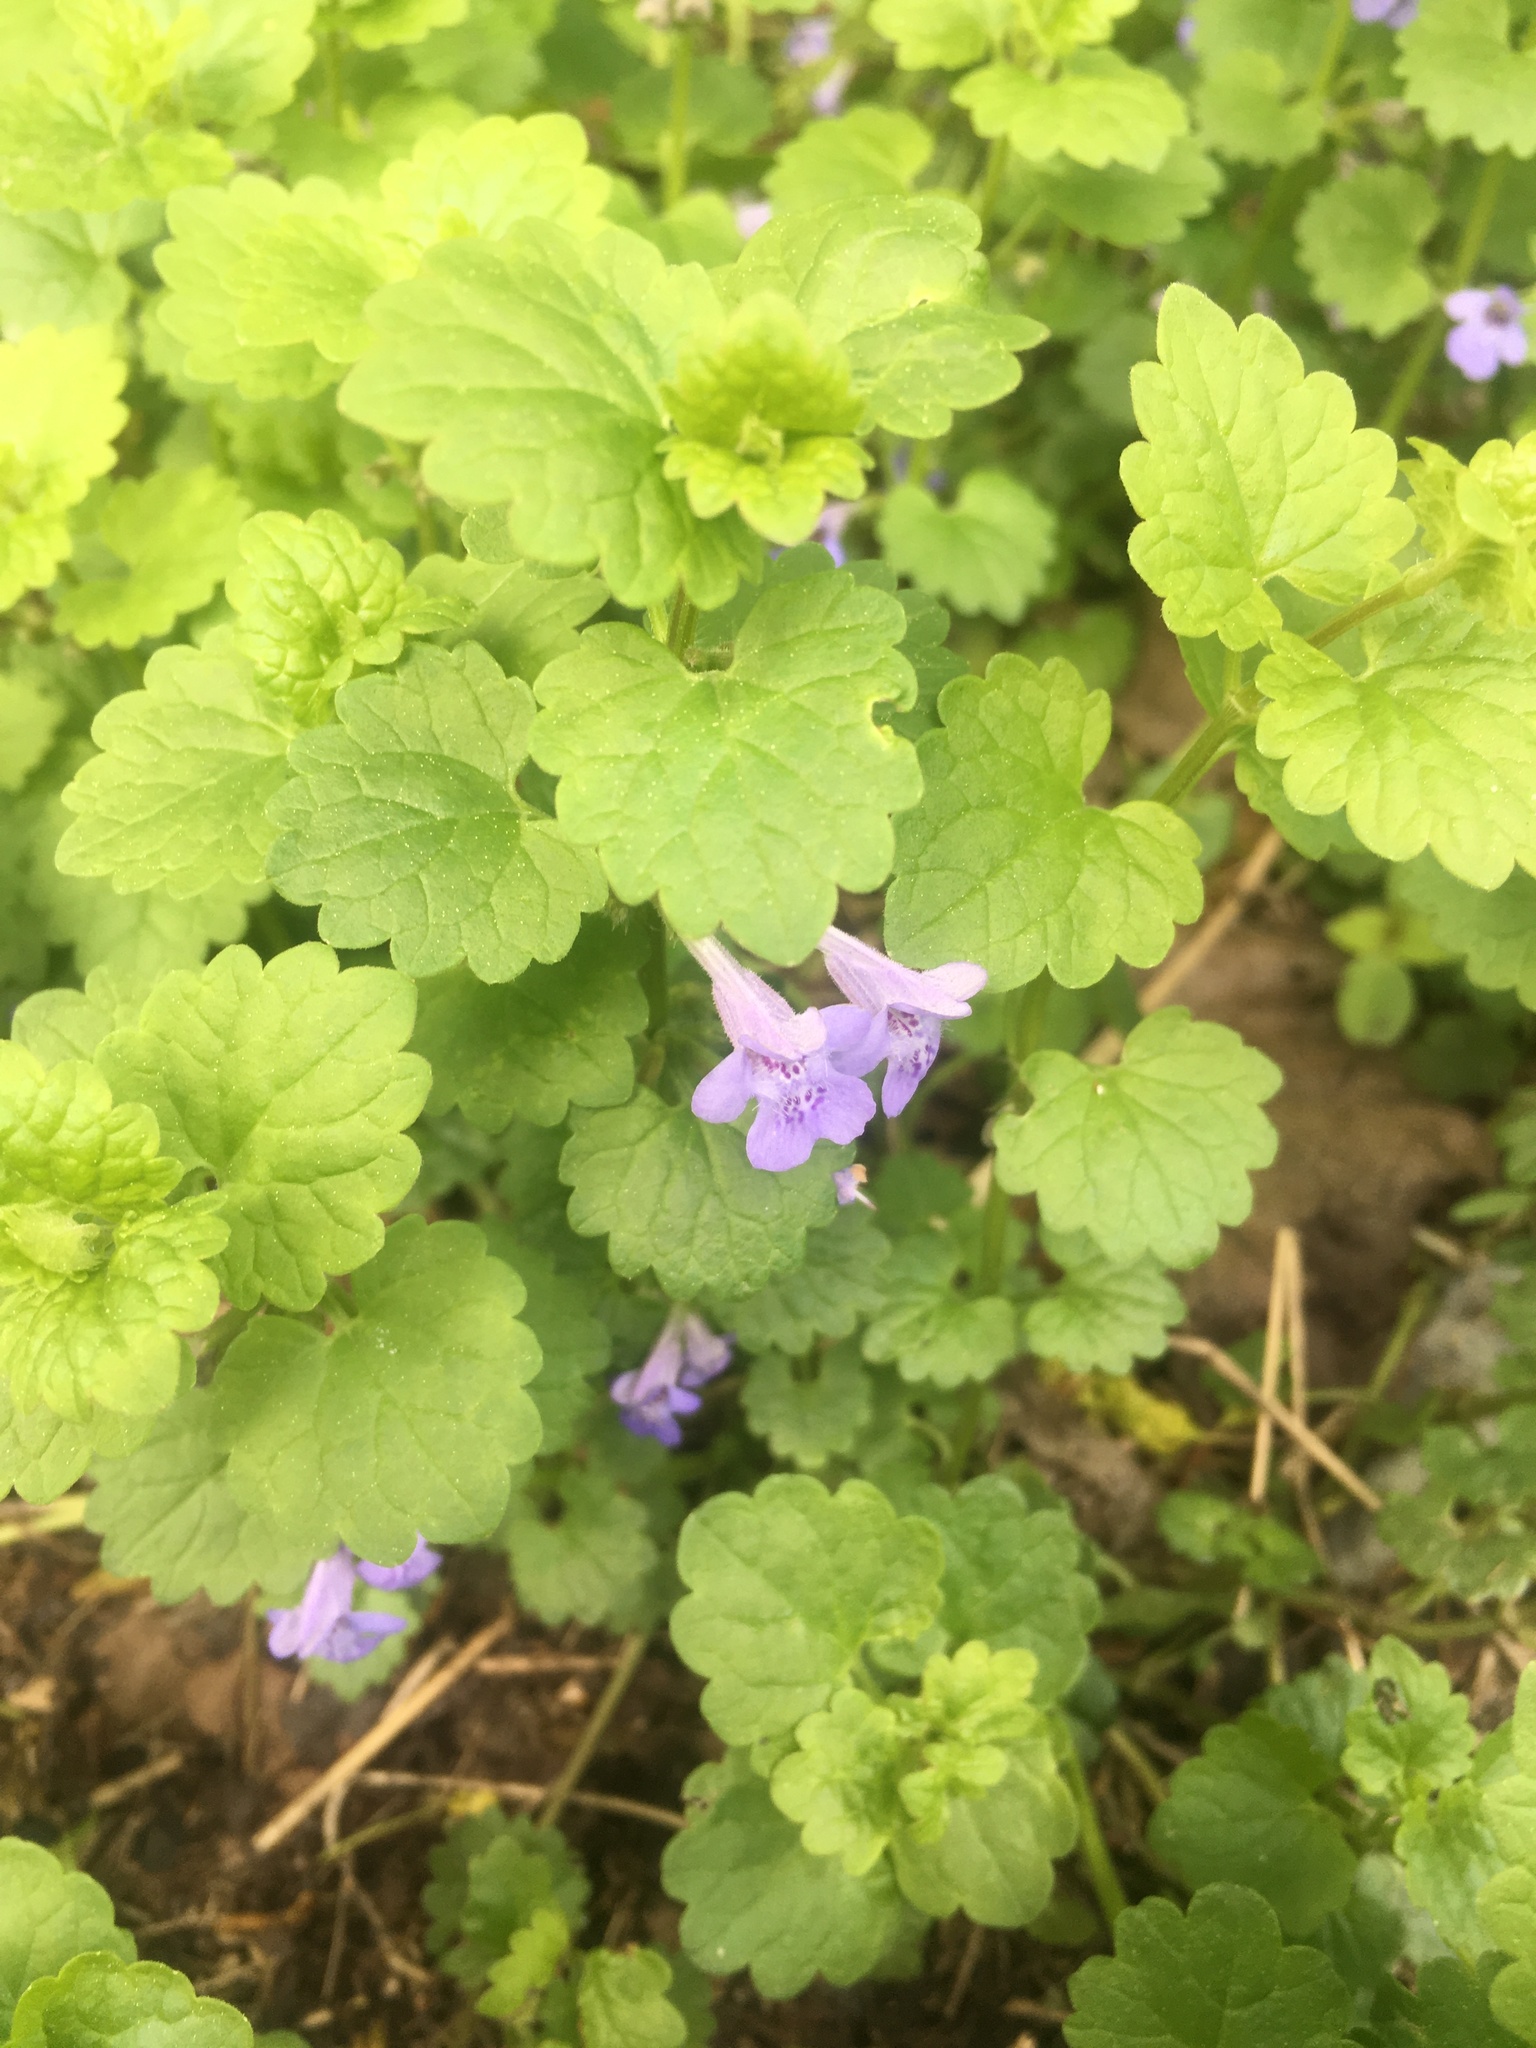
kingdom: Plantae
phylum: Tracheophyta
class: Magnoliopsida
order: Lamiales
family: Lamiaceae
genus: Glechoma
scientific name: Glechoma hederacea
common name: Ground ivy
